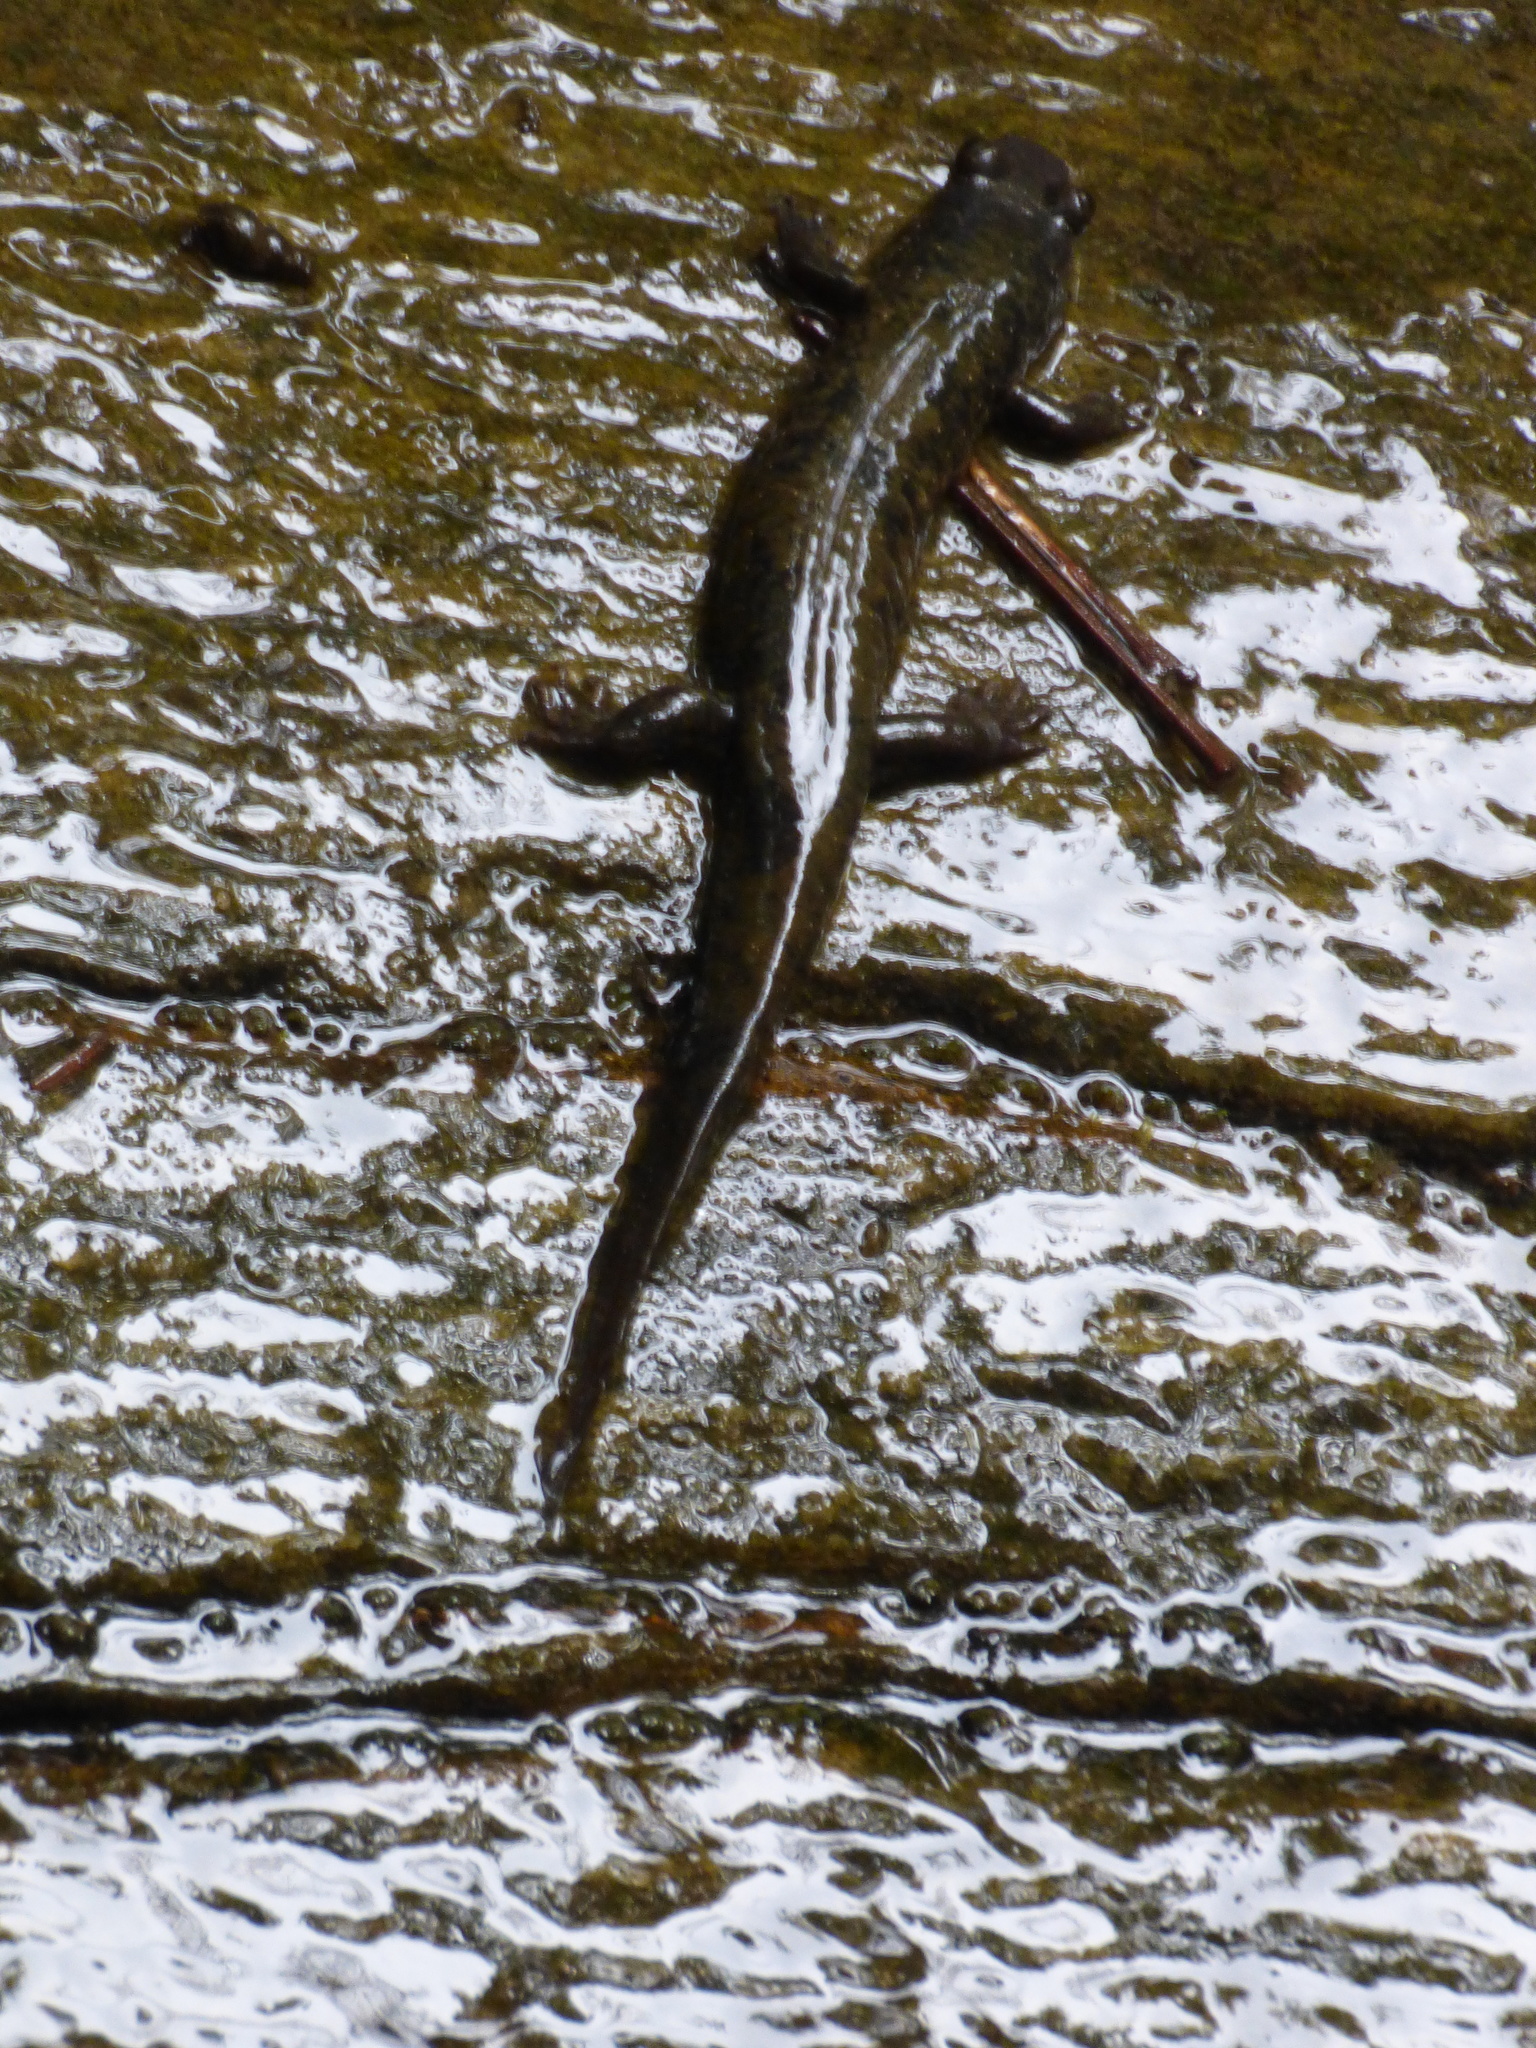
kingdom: Animalia
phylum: Chordata
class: Amphibia
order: Caudata
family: Plethodontidae
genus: Desmognathus
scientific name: Desmognathus
